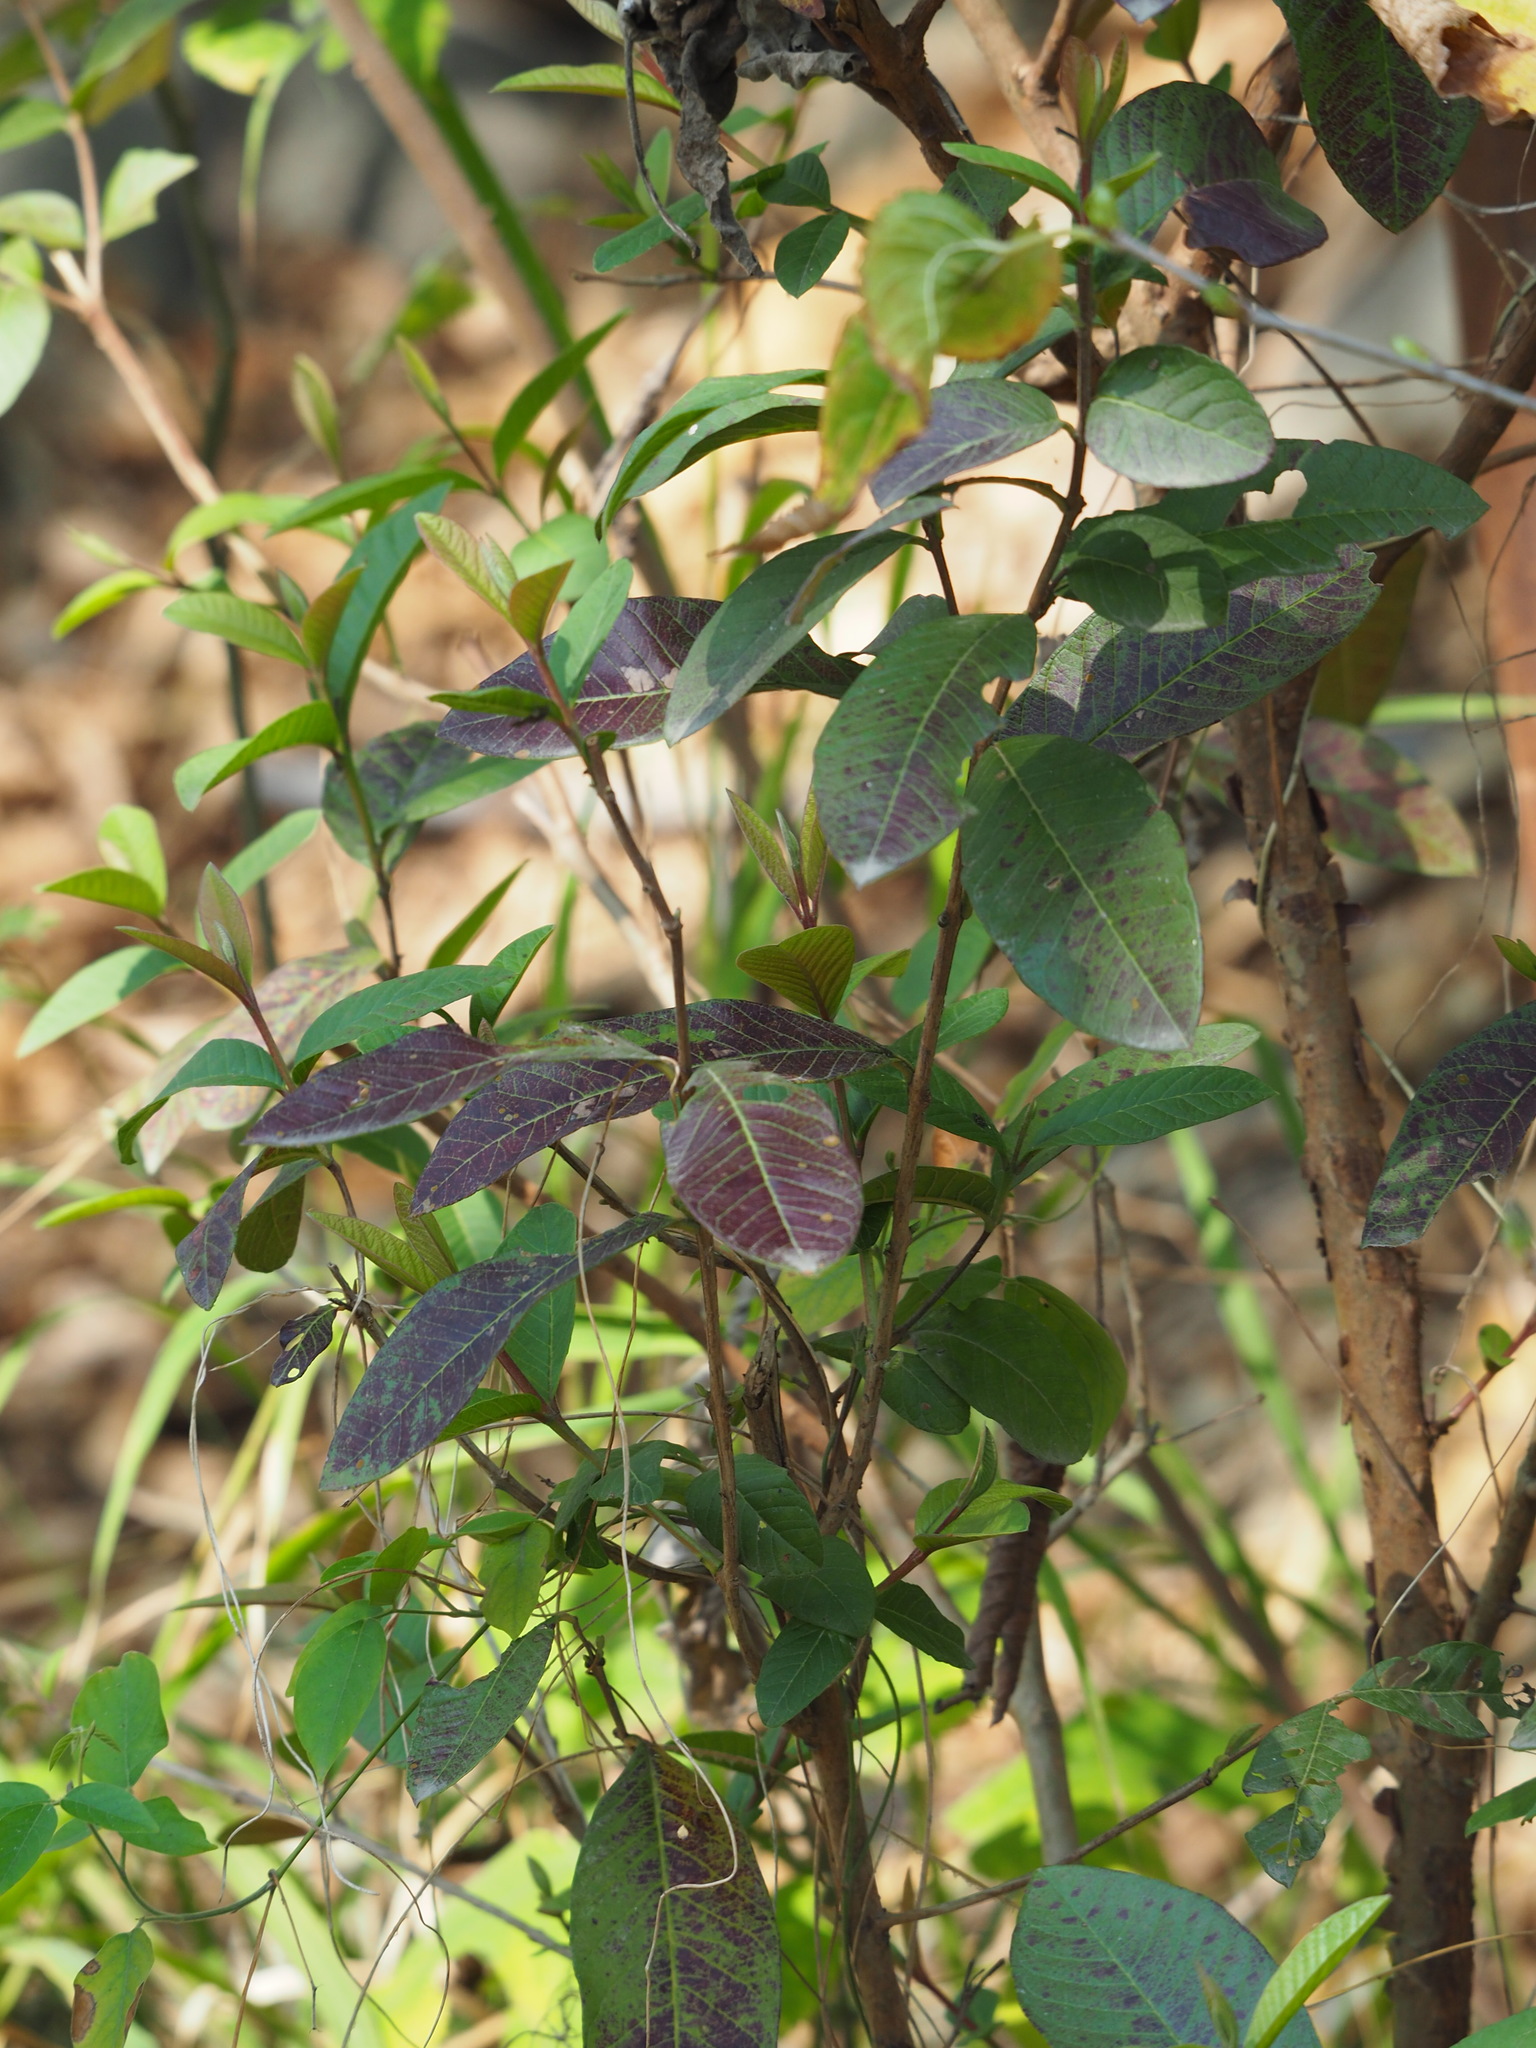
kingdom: Plantae
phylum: Tracheophyta
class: Magnoliopsida
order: Myrtales
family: Myrtaceae
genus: Psidium
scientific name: Psidium guajava
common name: Guava
